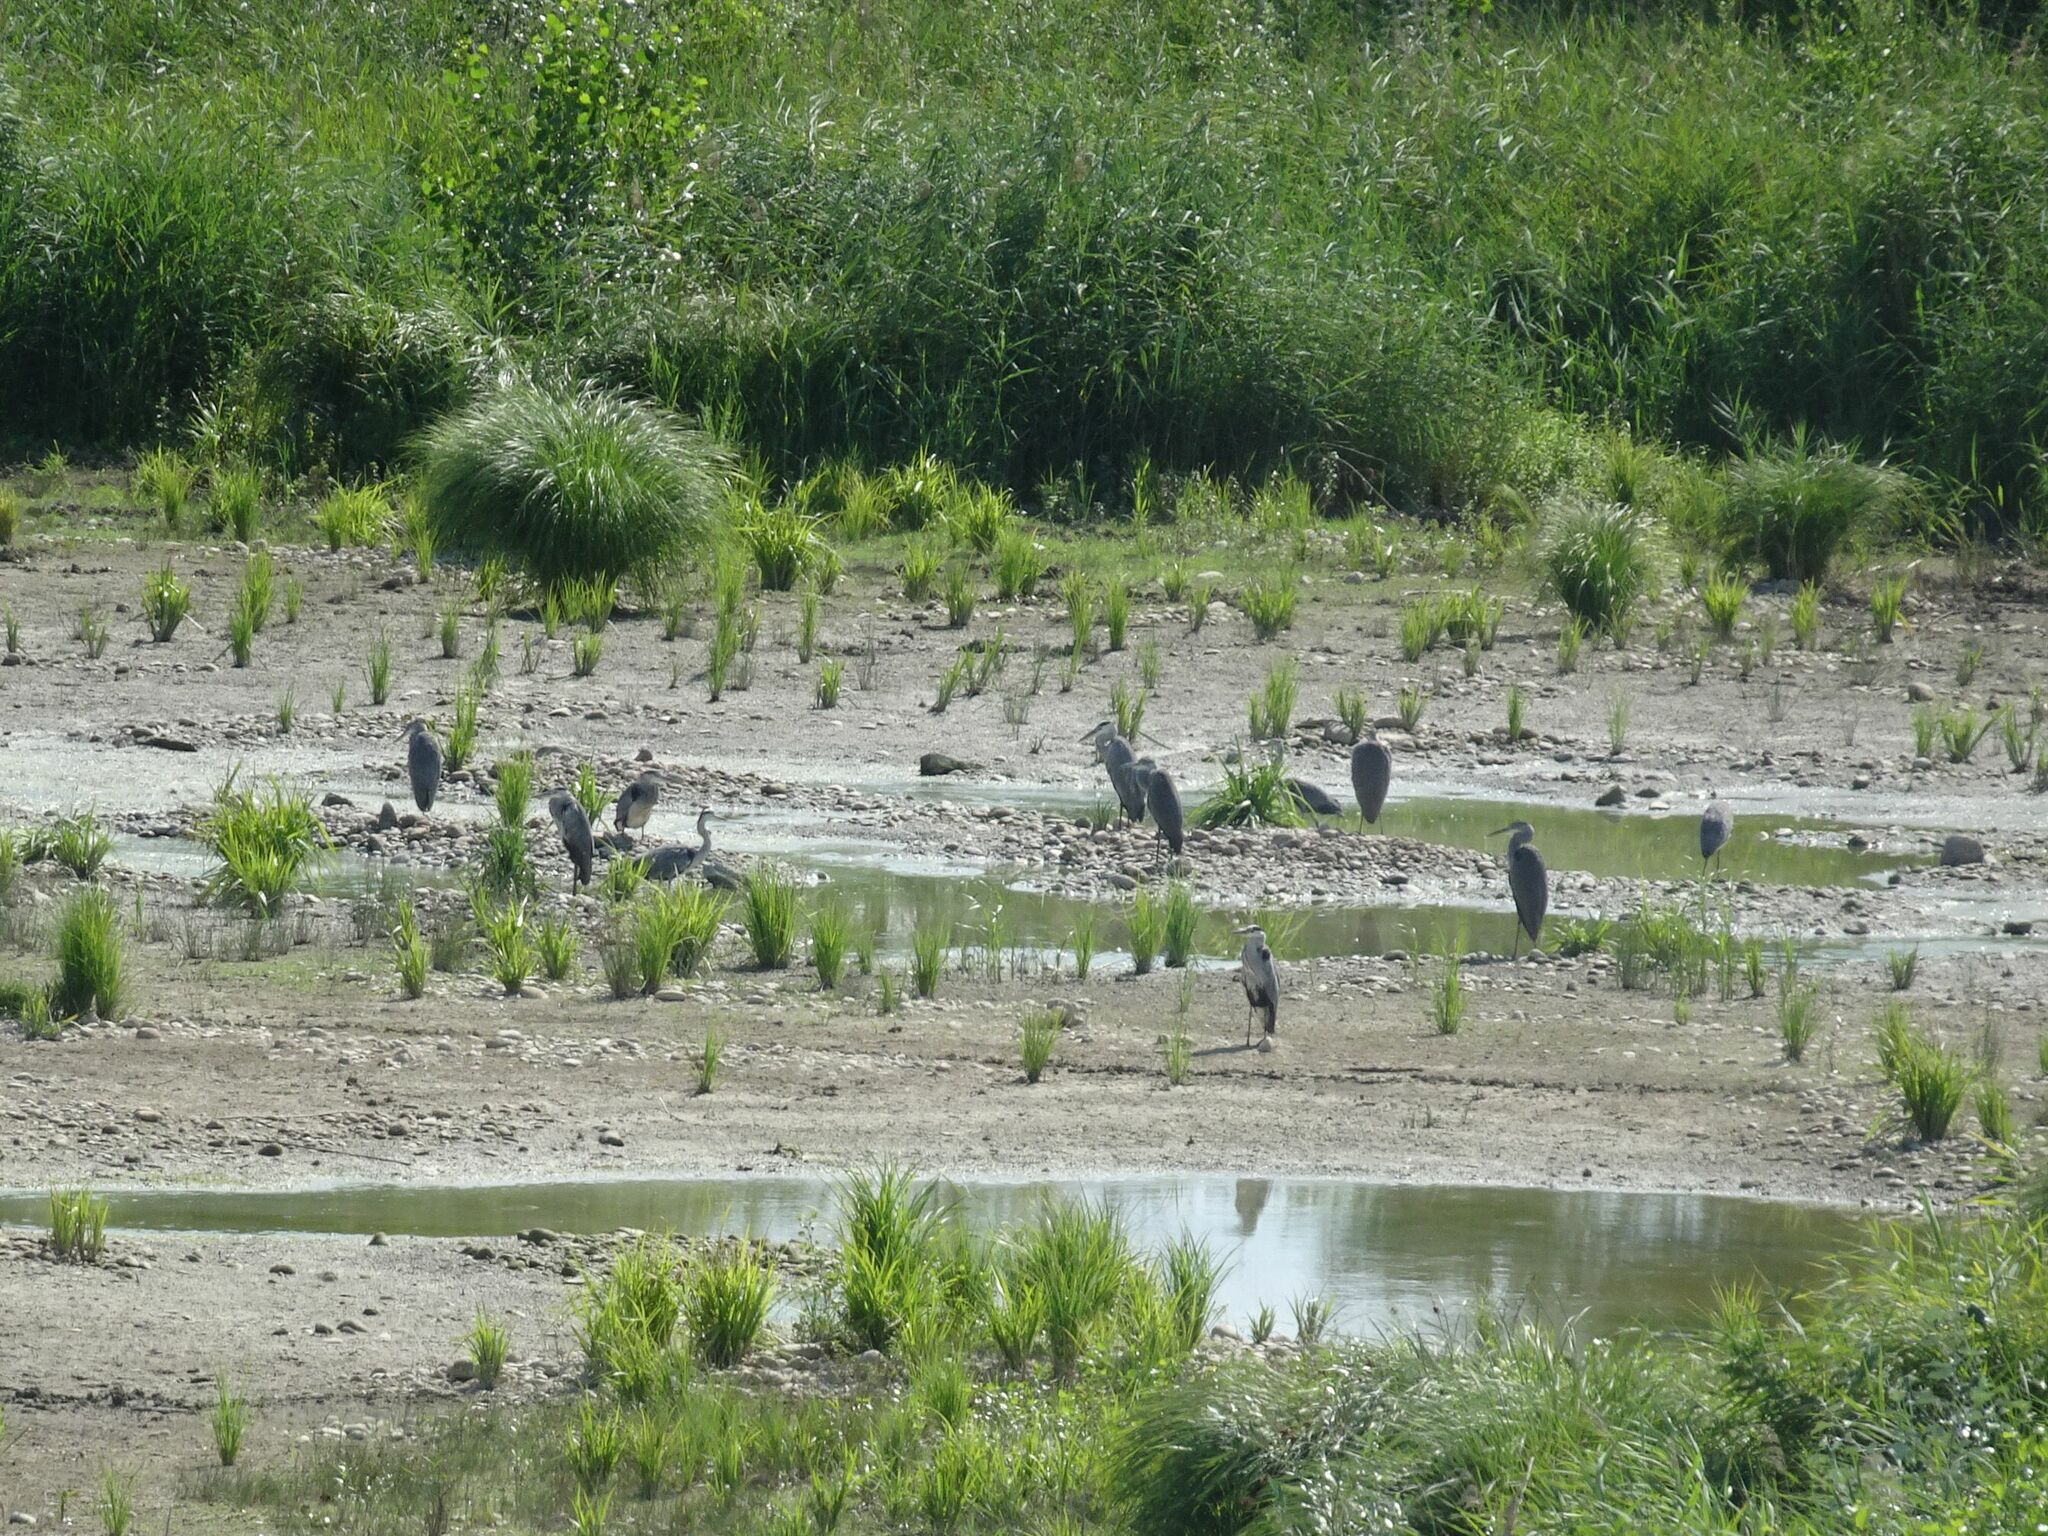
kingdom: Animalia
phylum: Chordata
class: Aves
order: Pelecaniformes
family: Ardeidae
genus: Ardea
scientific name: Ardea cinerea
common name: Grey heron
